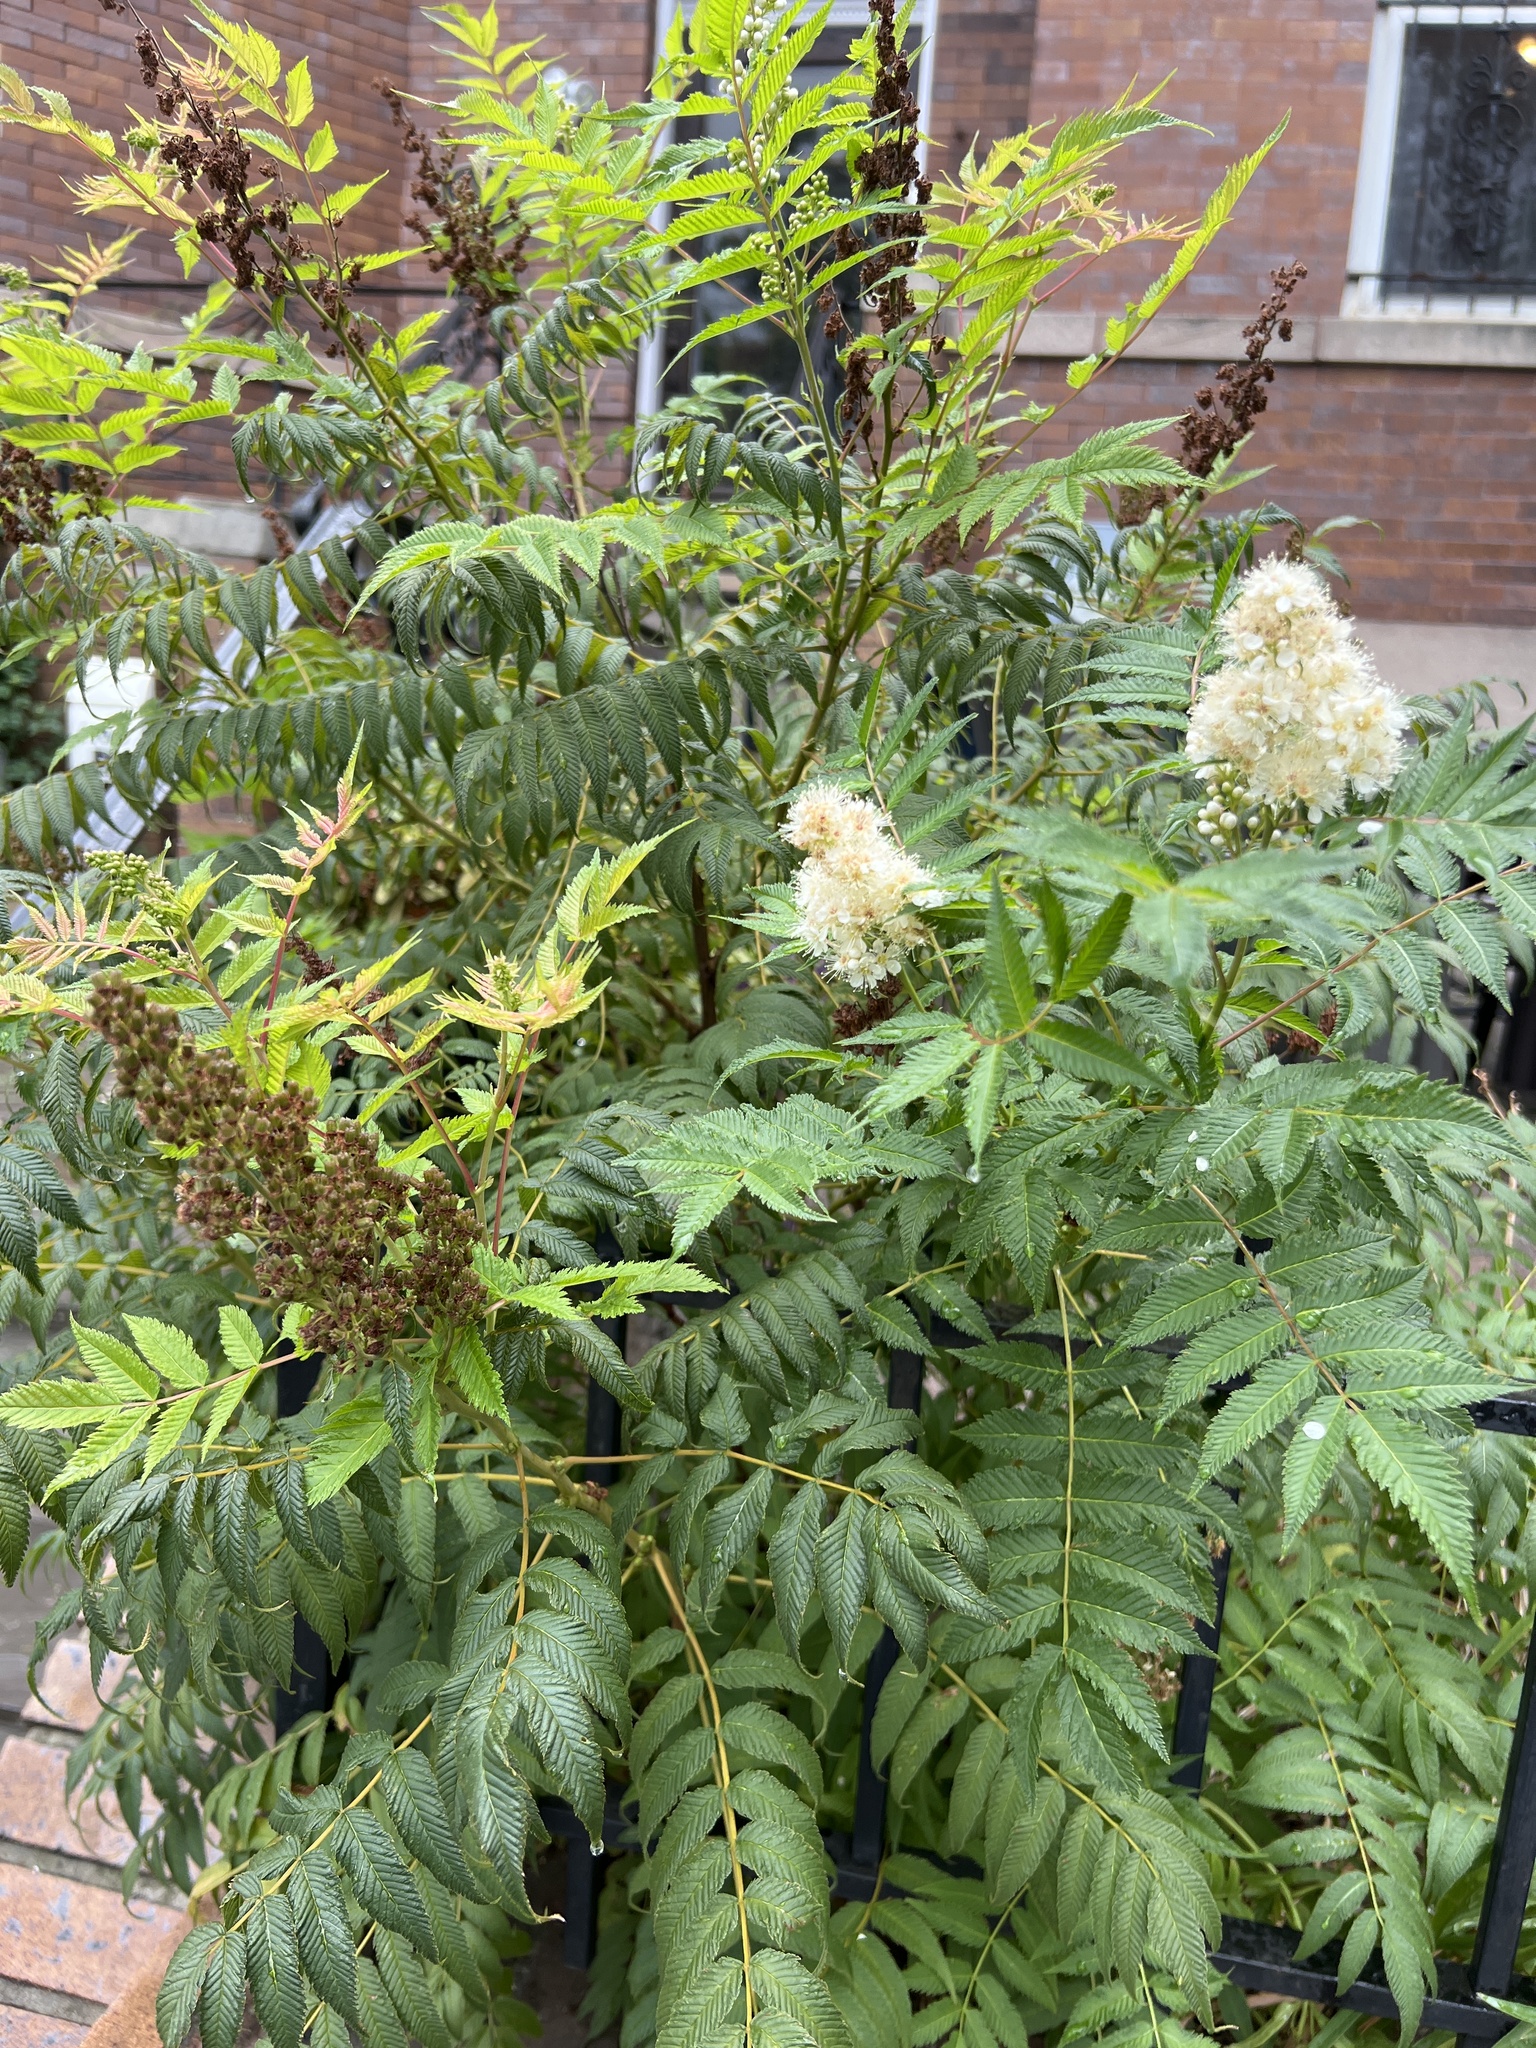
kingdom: Plantae
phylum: Tracheophyta
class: Magnoliopsida
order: Rosales
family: Rosaceae
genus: Sorbaria
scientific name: Sorbaria sorbifolia
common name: False spiraea
